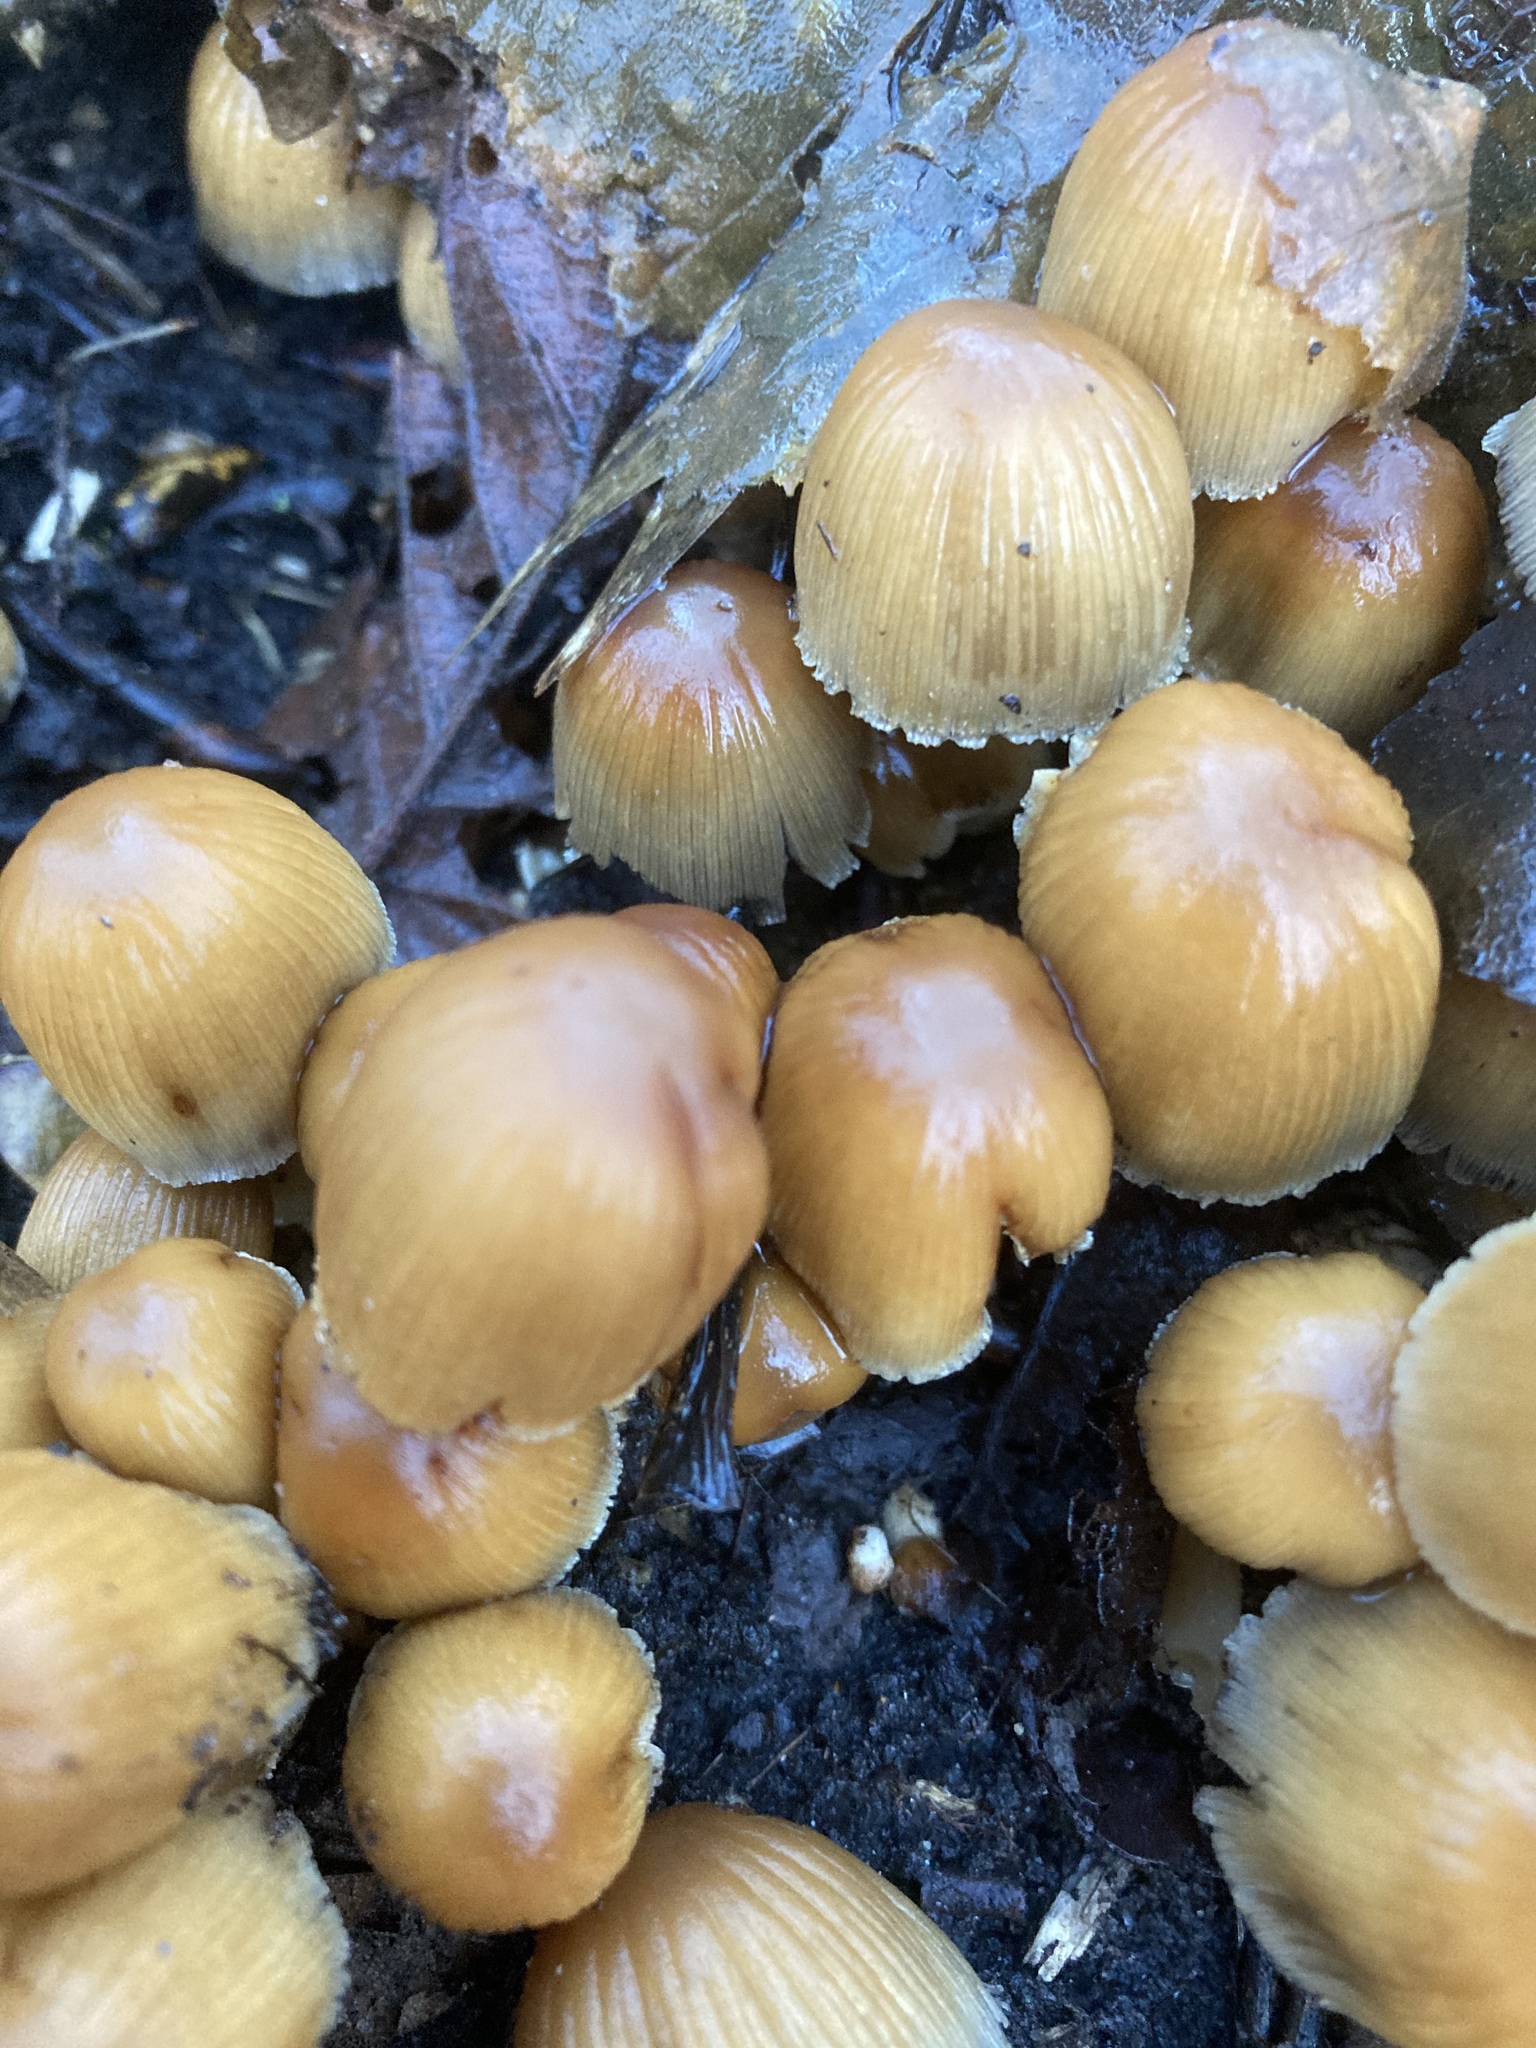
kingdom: Fungi
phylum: Basidiomycota
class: Agaricomycetes
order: Agaricales
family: Psathyrellaceae
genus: Coprinellus
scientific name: Coprinellus micaceus
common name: Glistening ink-cap
